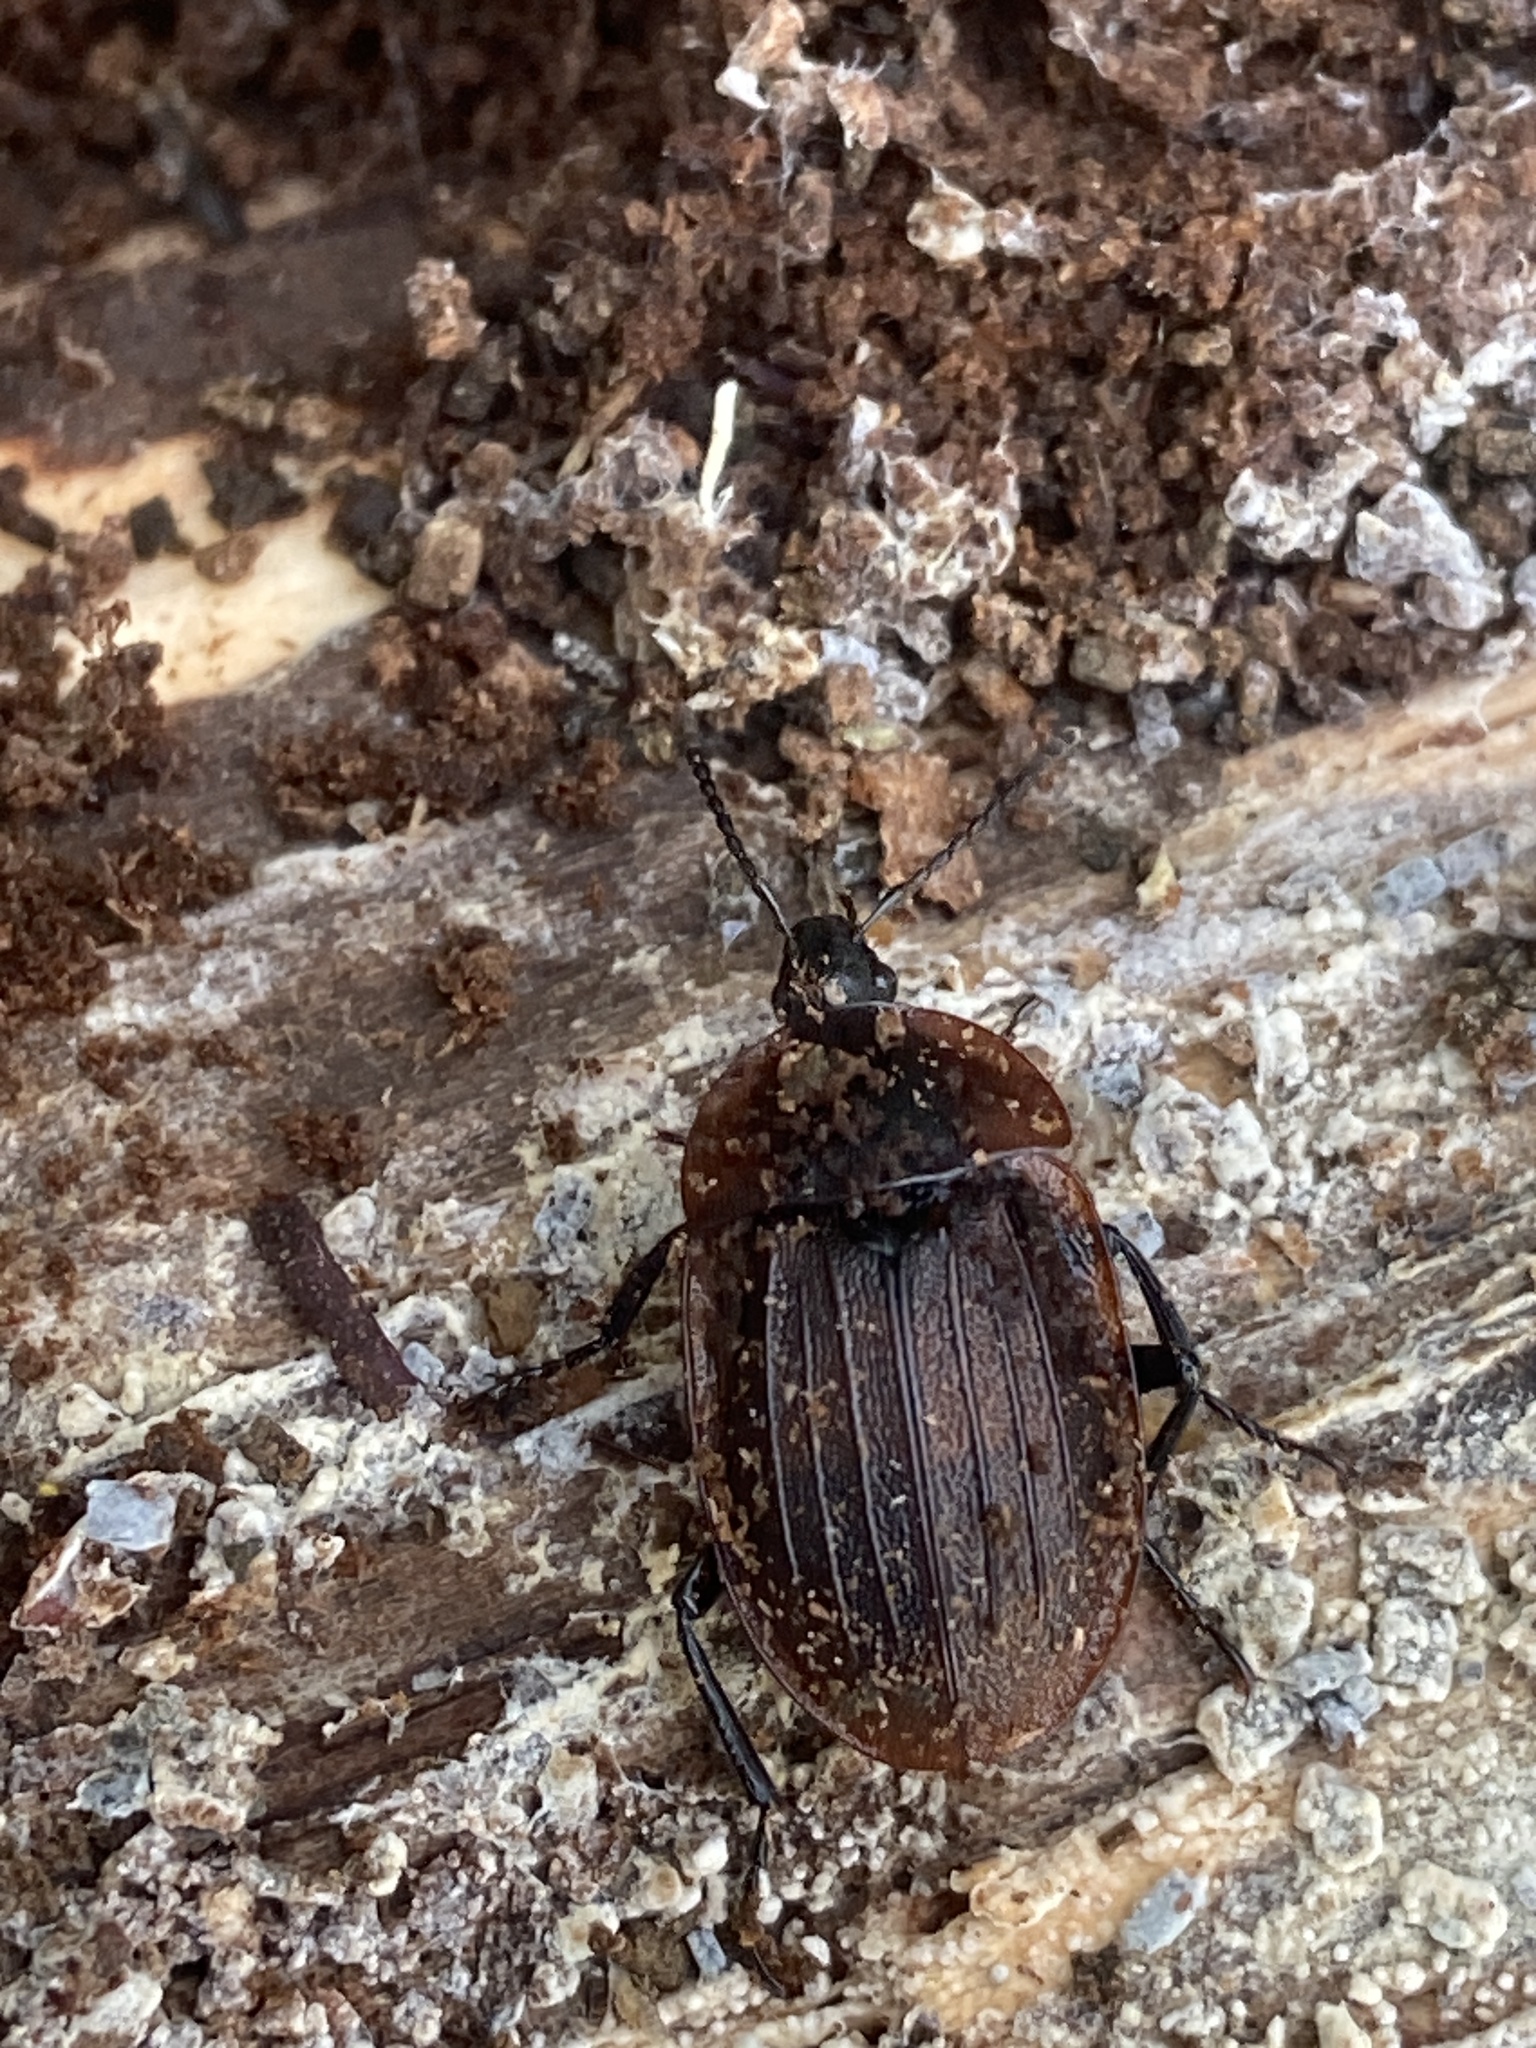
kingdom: Animalia
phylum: Arthropoda
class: Insecta
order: Coleoptera
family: Staphylinidae
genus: Silpha
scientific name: Silpha atrata
